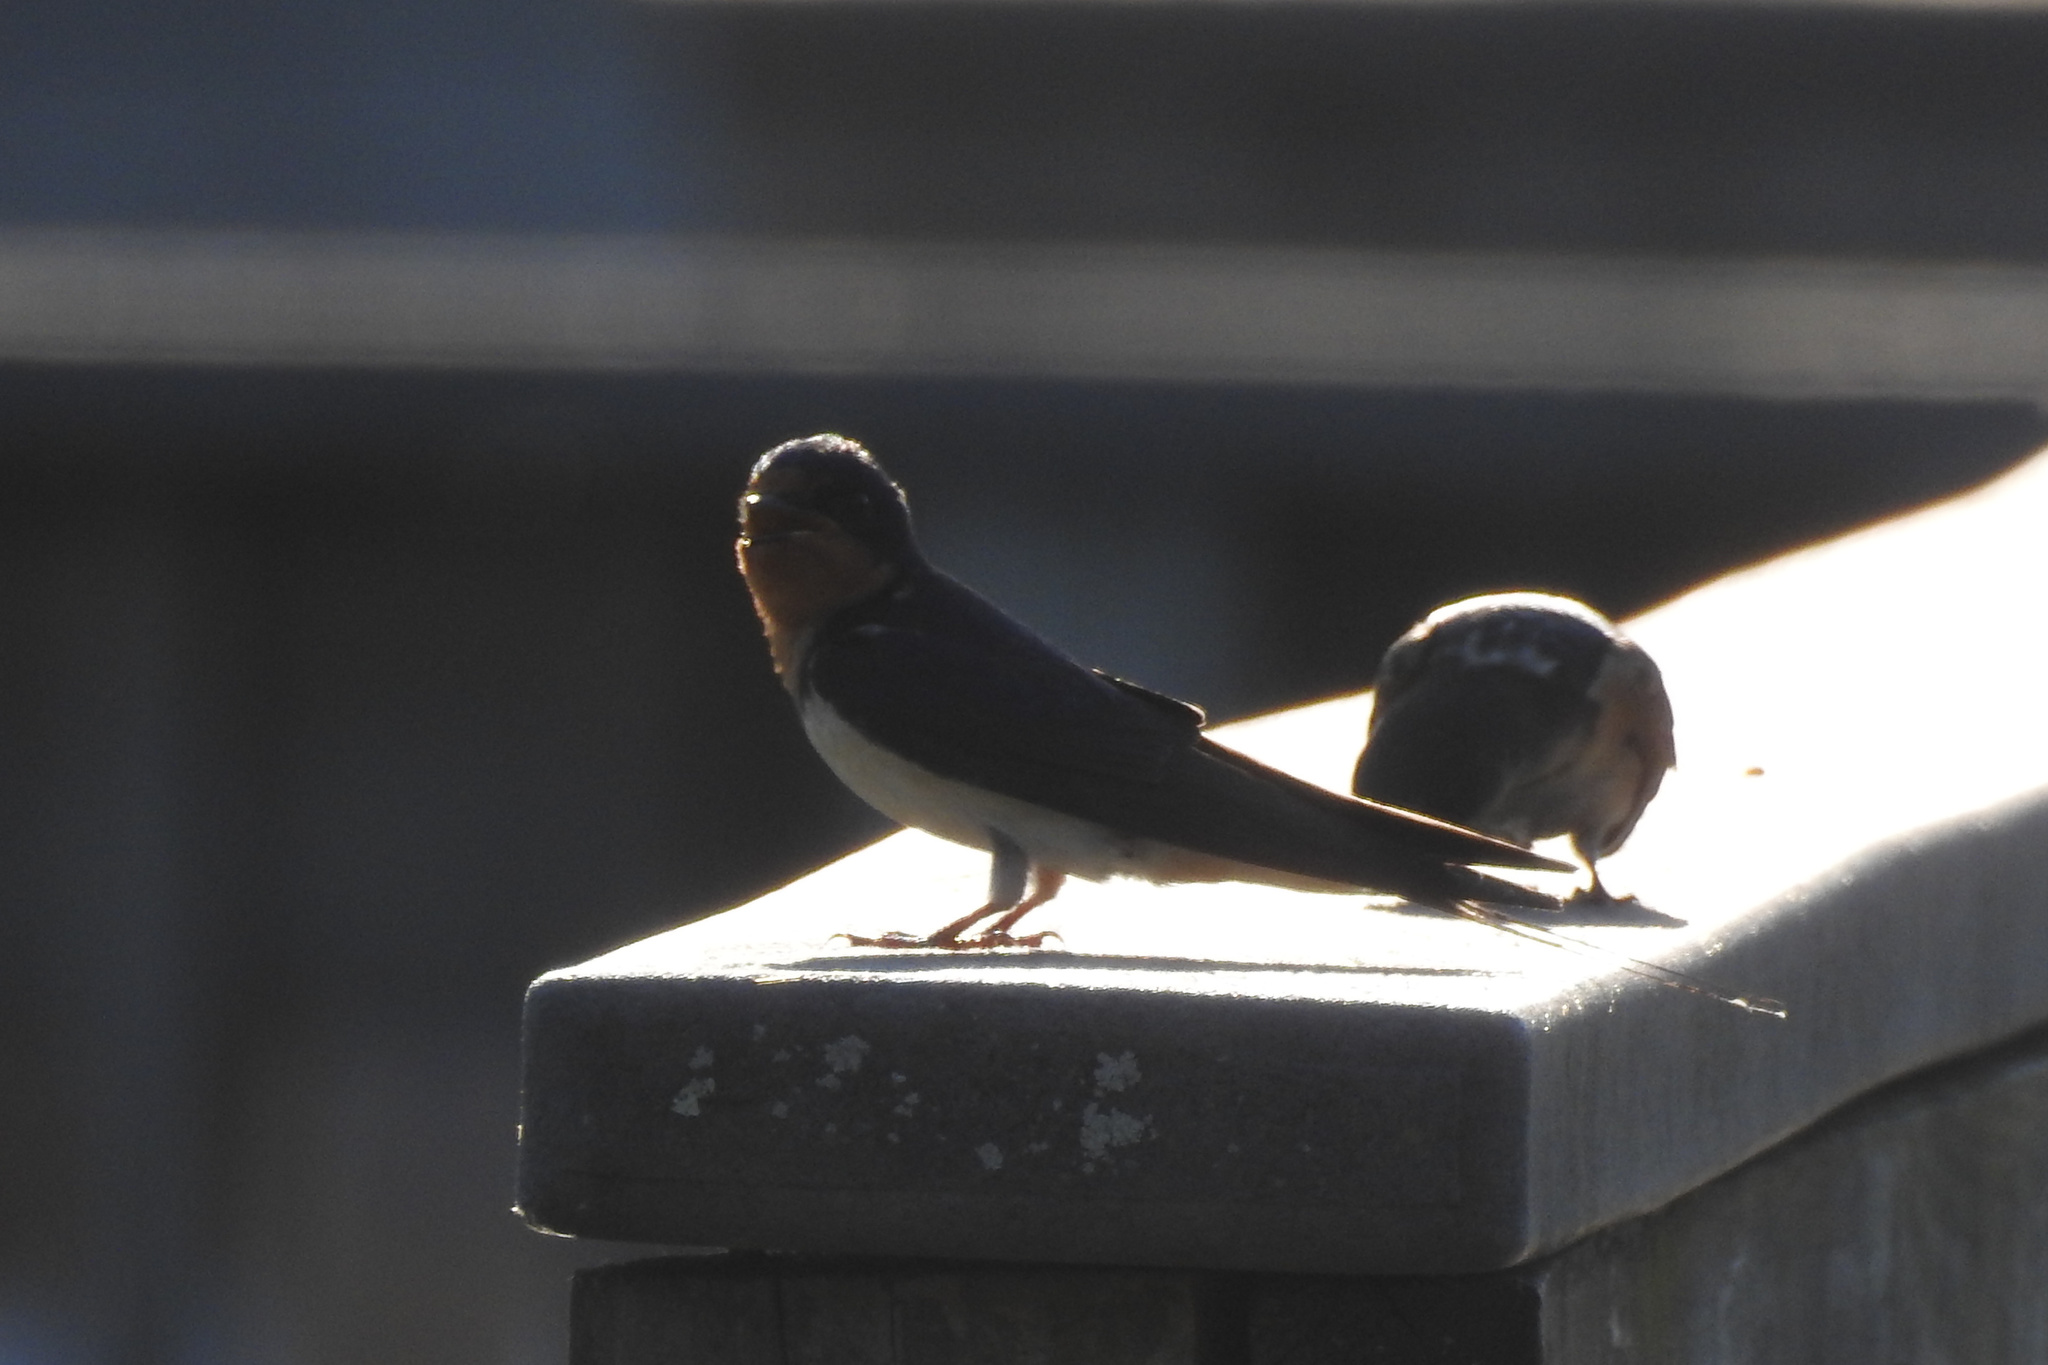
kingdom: Animalia
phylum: Chordata
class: Aves
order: Passeriformes
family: Hirundinidae
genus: Hirundo
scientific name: Hirundo rustica
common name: Barn swallow
